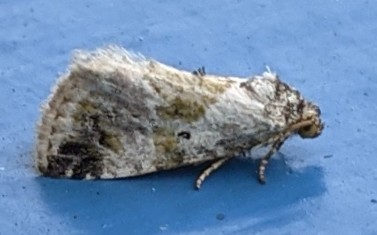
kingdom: Animalia
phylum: Arthropoda
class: Insecta
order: Lepidoptera
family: Noctuidae
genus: Maliattha
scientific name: Maliattha synochitis
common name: Black-dotted glyph
